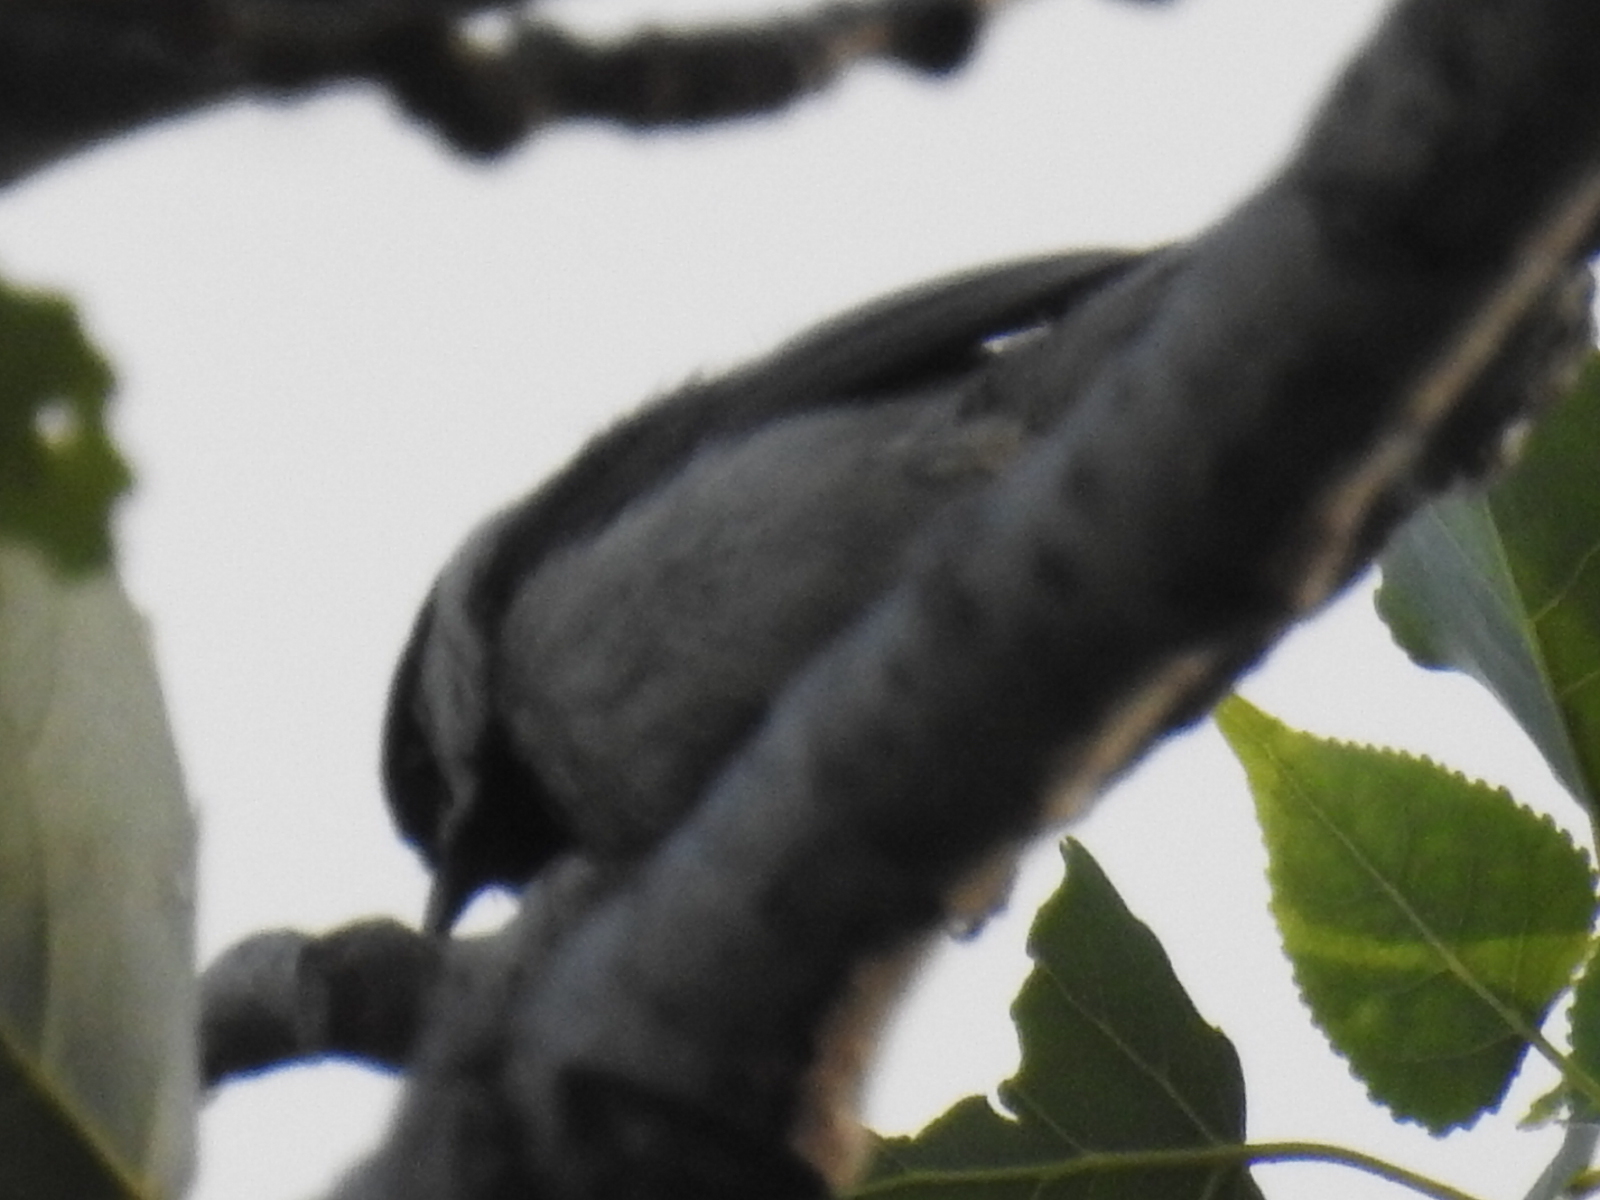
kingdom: Animalia
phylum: Chordata
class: Aves
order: Passeriformes
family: Paridae
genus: Poecile
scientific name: Poecile carolinensis
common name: Carolina chickadee
